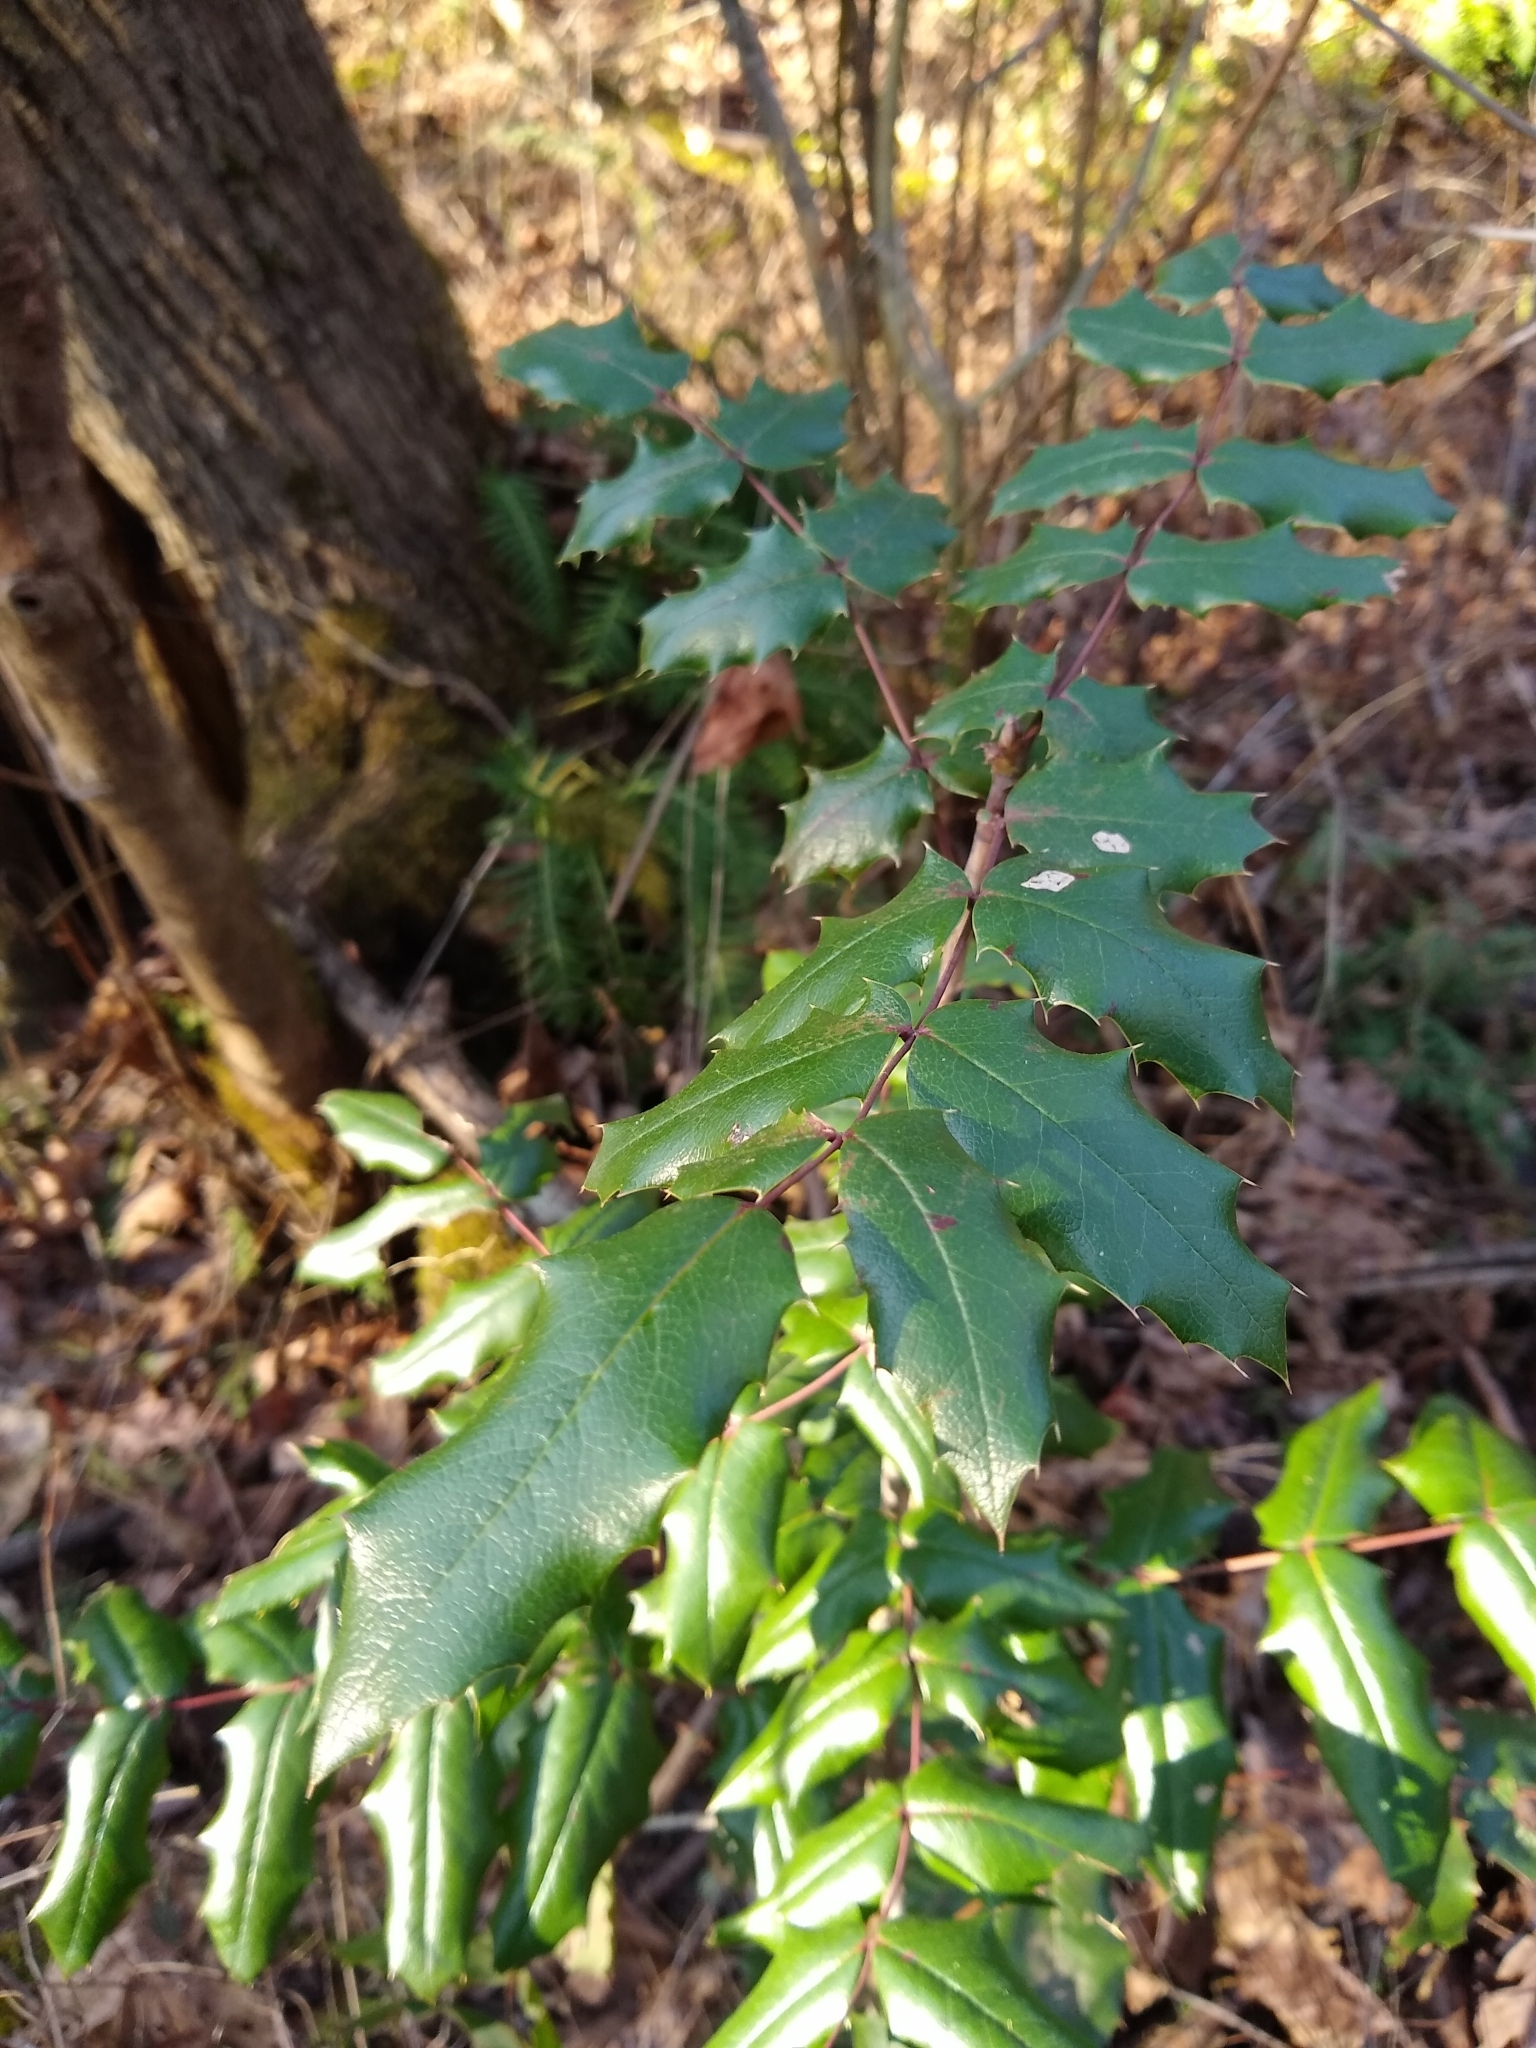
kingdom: Plantae
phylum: Tracheophyta
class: Magnoliopsida
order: Ranunculales
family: Berberidaceae
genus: Mahonia
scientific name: Mahonia aquifolium
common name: Oregon-grape
